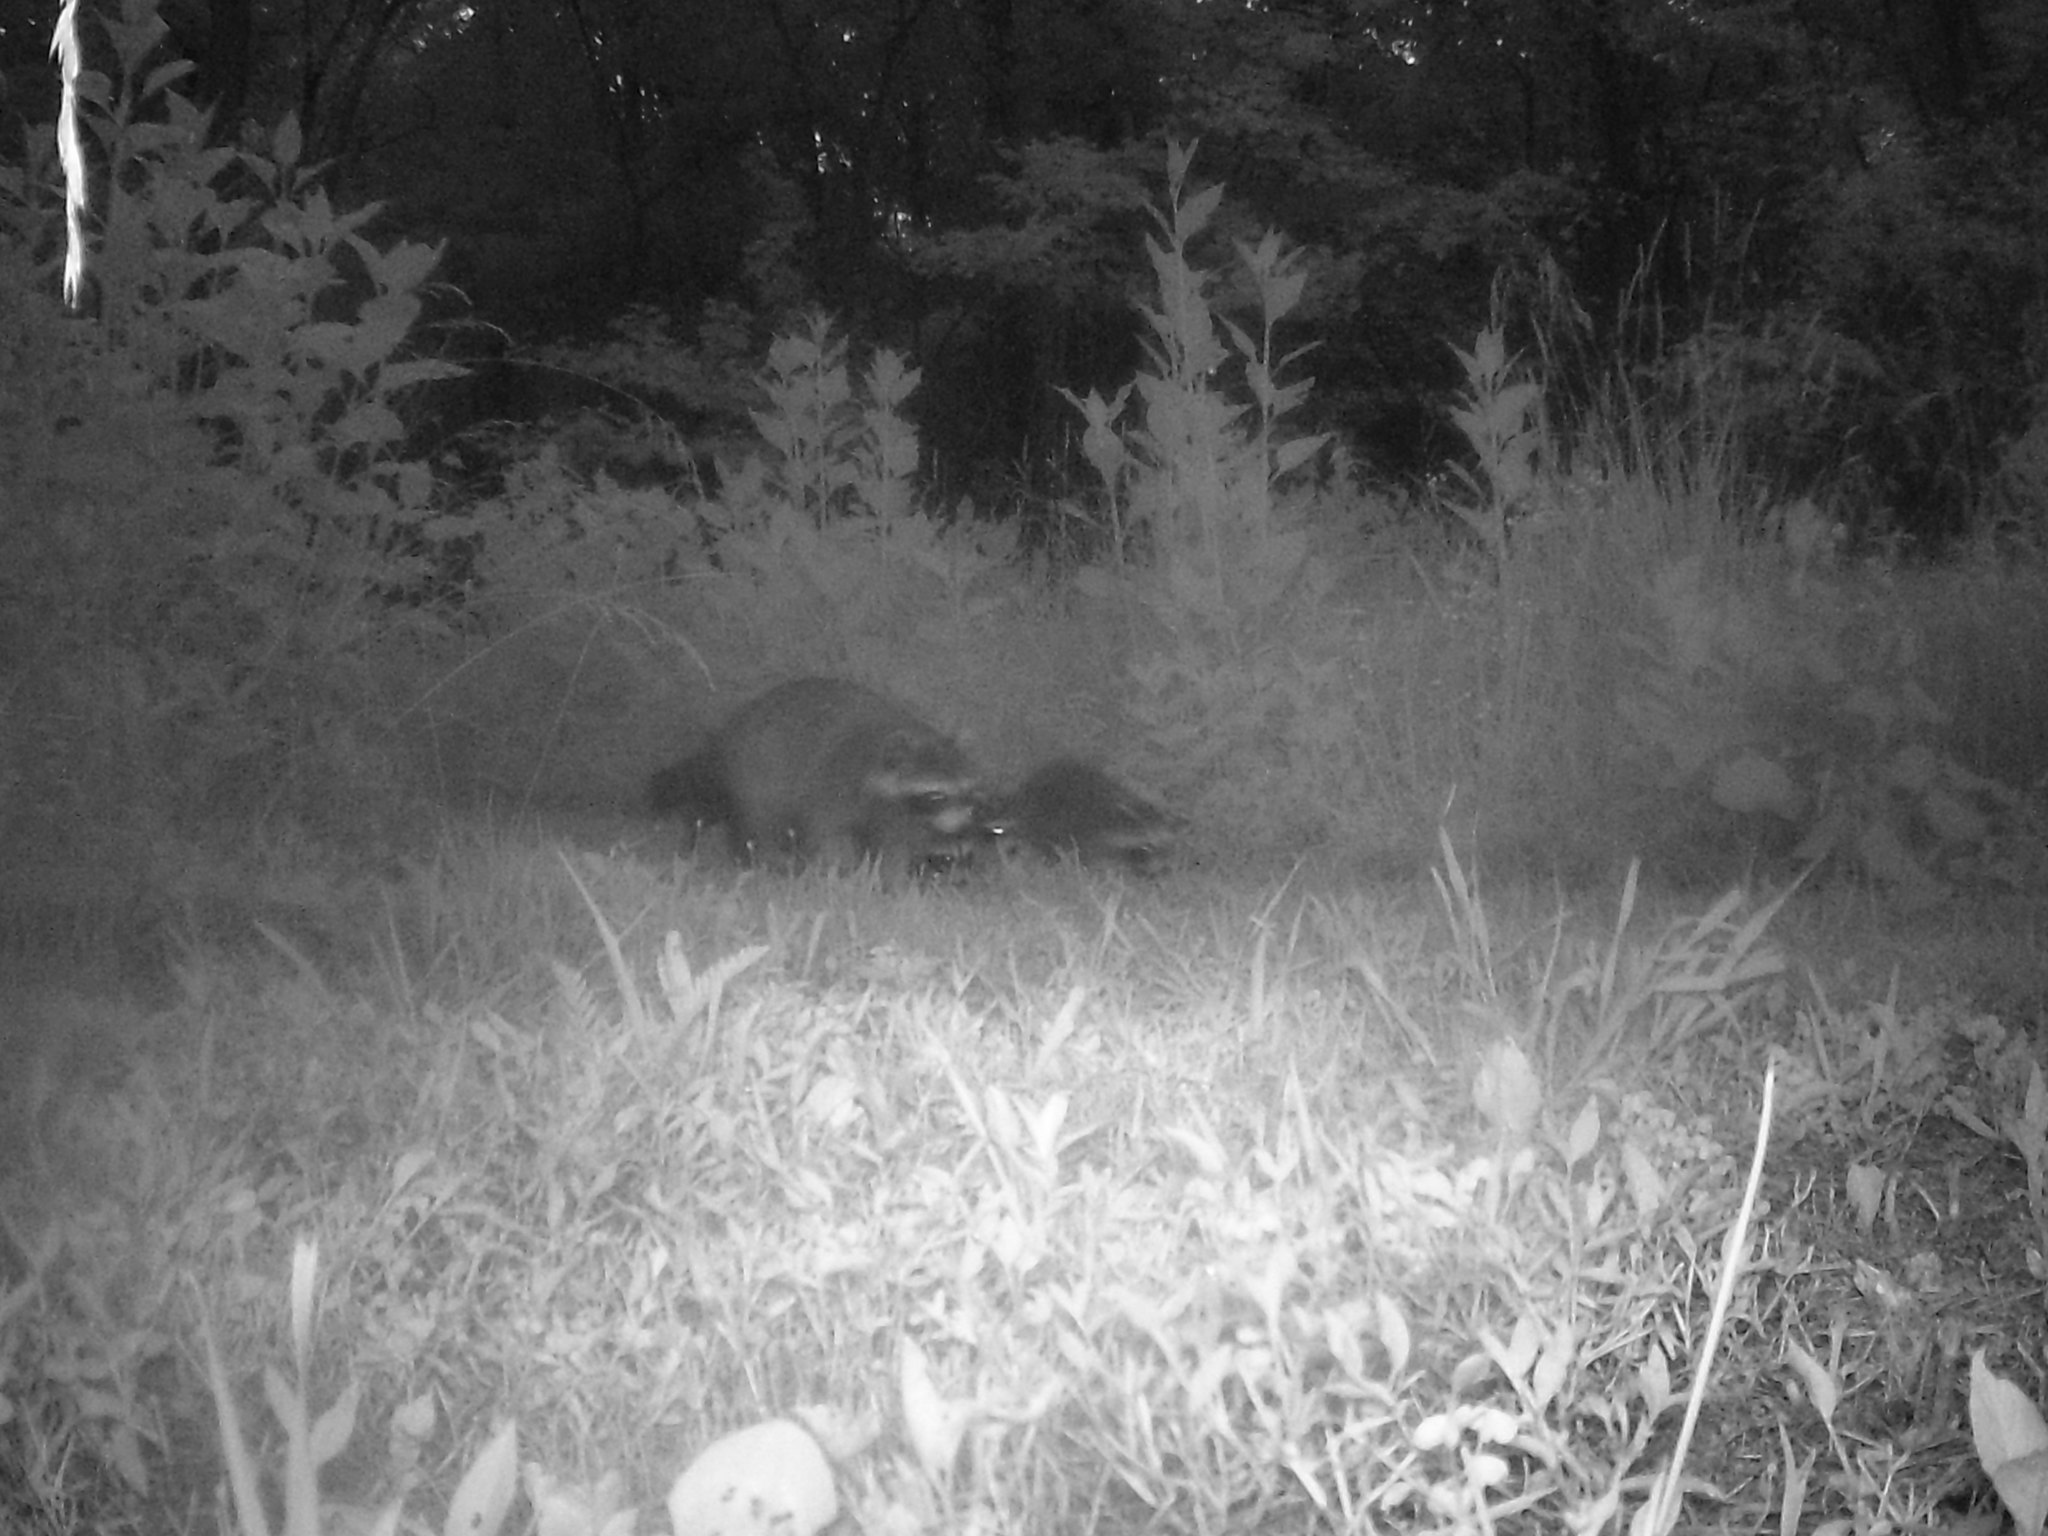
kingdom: Animalia
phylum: Chordata
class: Mammalia
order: Carnivora
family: Procyonidae
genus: Procyon
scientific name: Procyon lotor
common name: Raccoon
